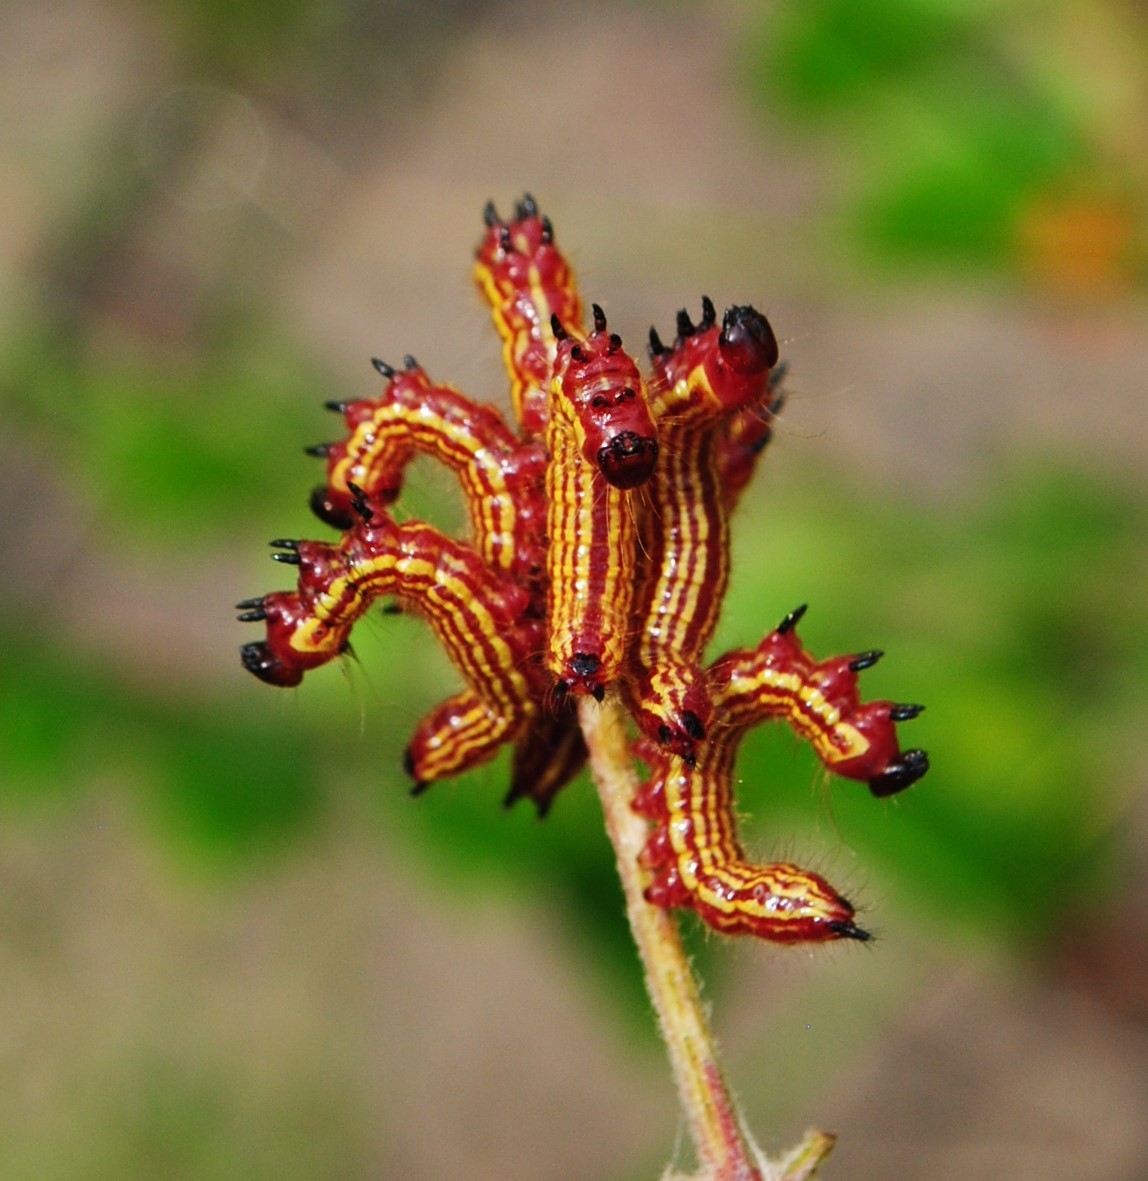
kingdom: Animalia
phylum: Arthropoda
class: Insecta
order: Lepidoptera
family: Notodontidae
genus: Datana
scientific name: Datana perspicua
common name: Spotted datana
